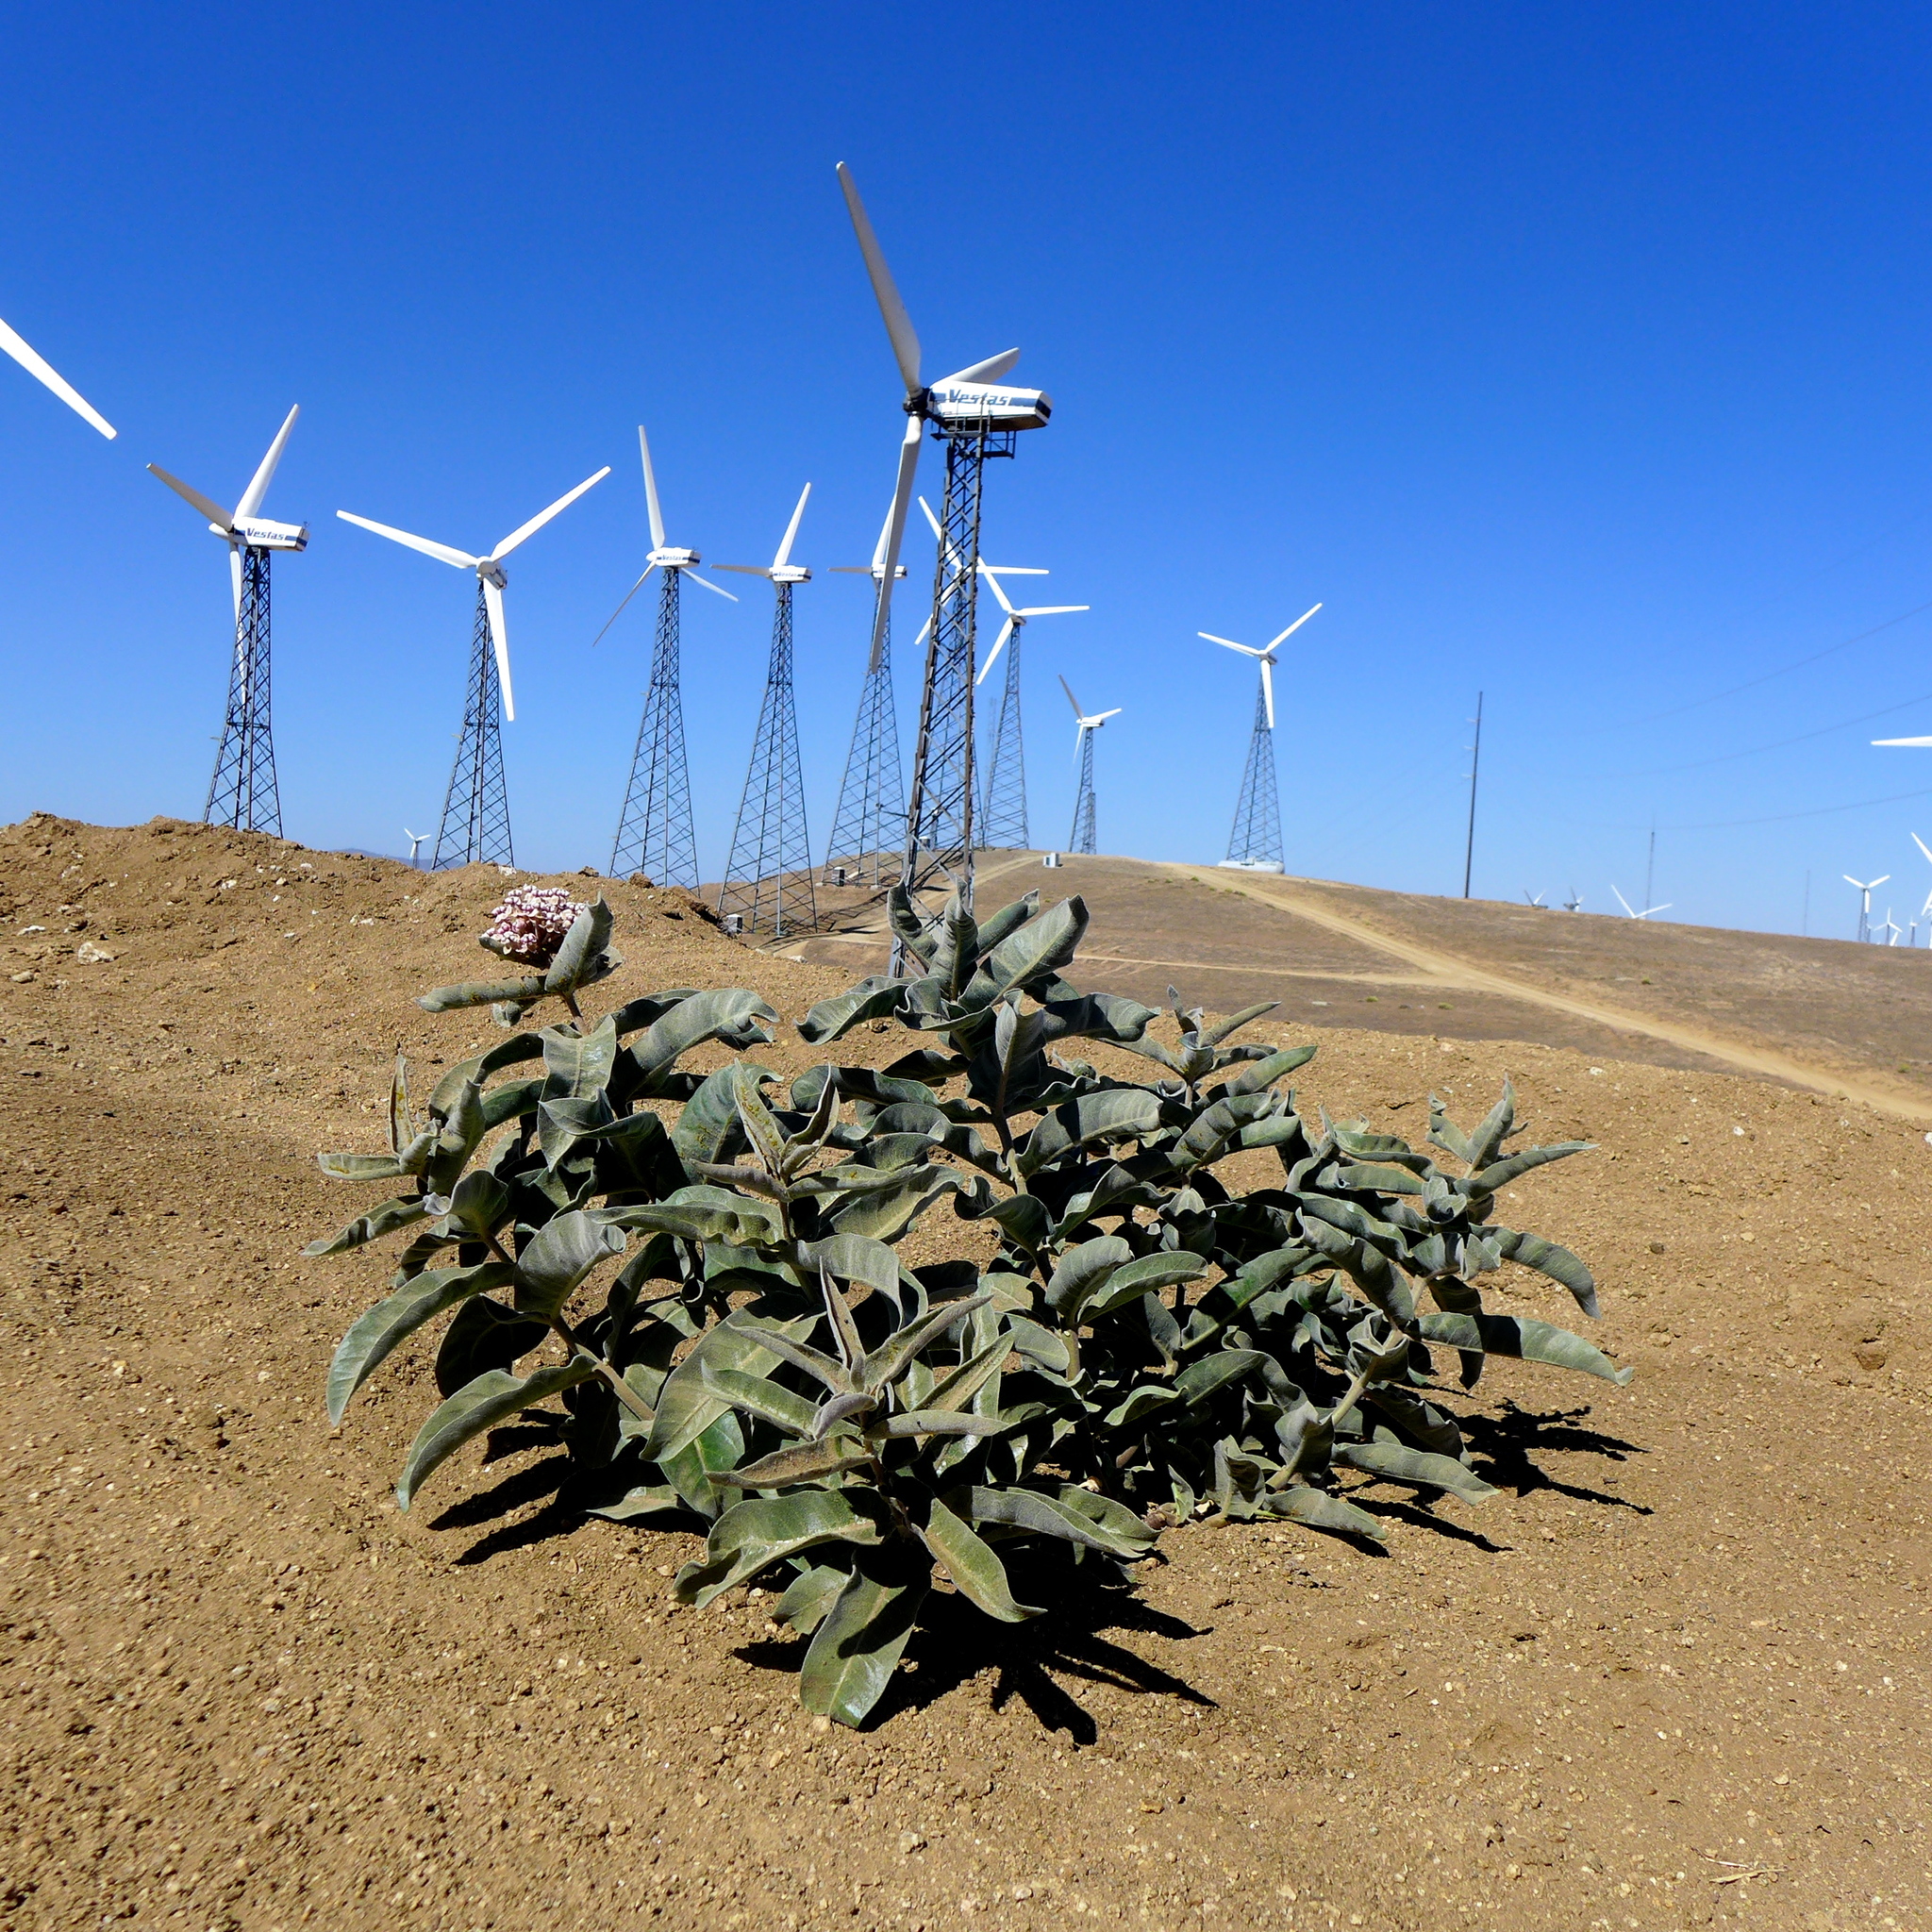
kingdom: Plantae
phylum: Tracheophyta
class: Magnoliopsida
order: Gentianales
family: Apocynaceae
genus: Asclepias
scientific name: Asclepias eriocarpa
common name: Indian milkweed
